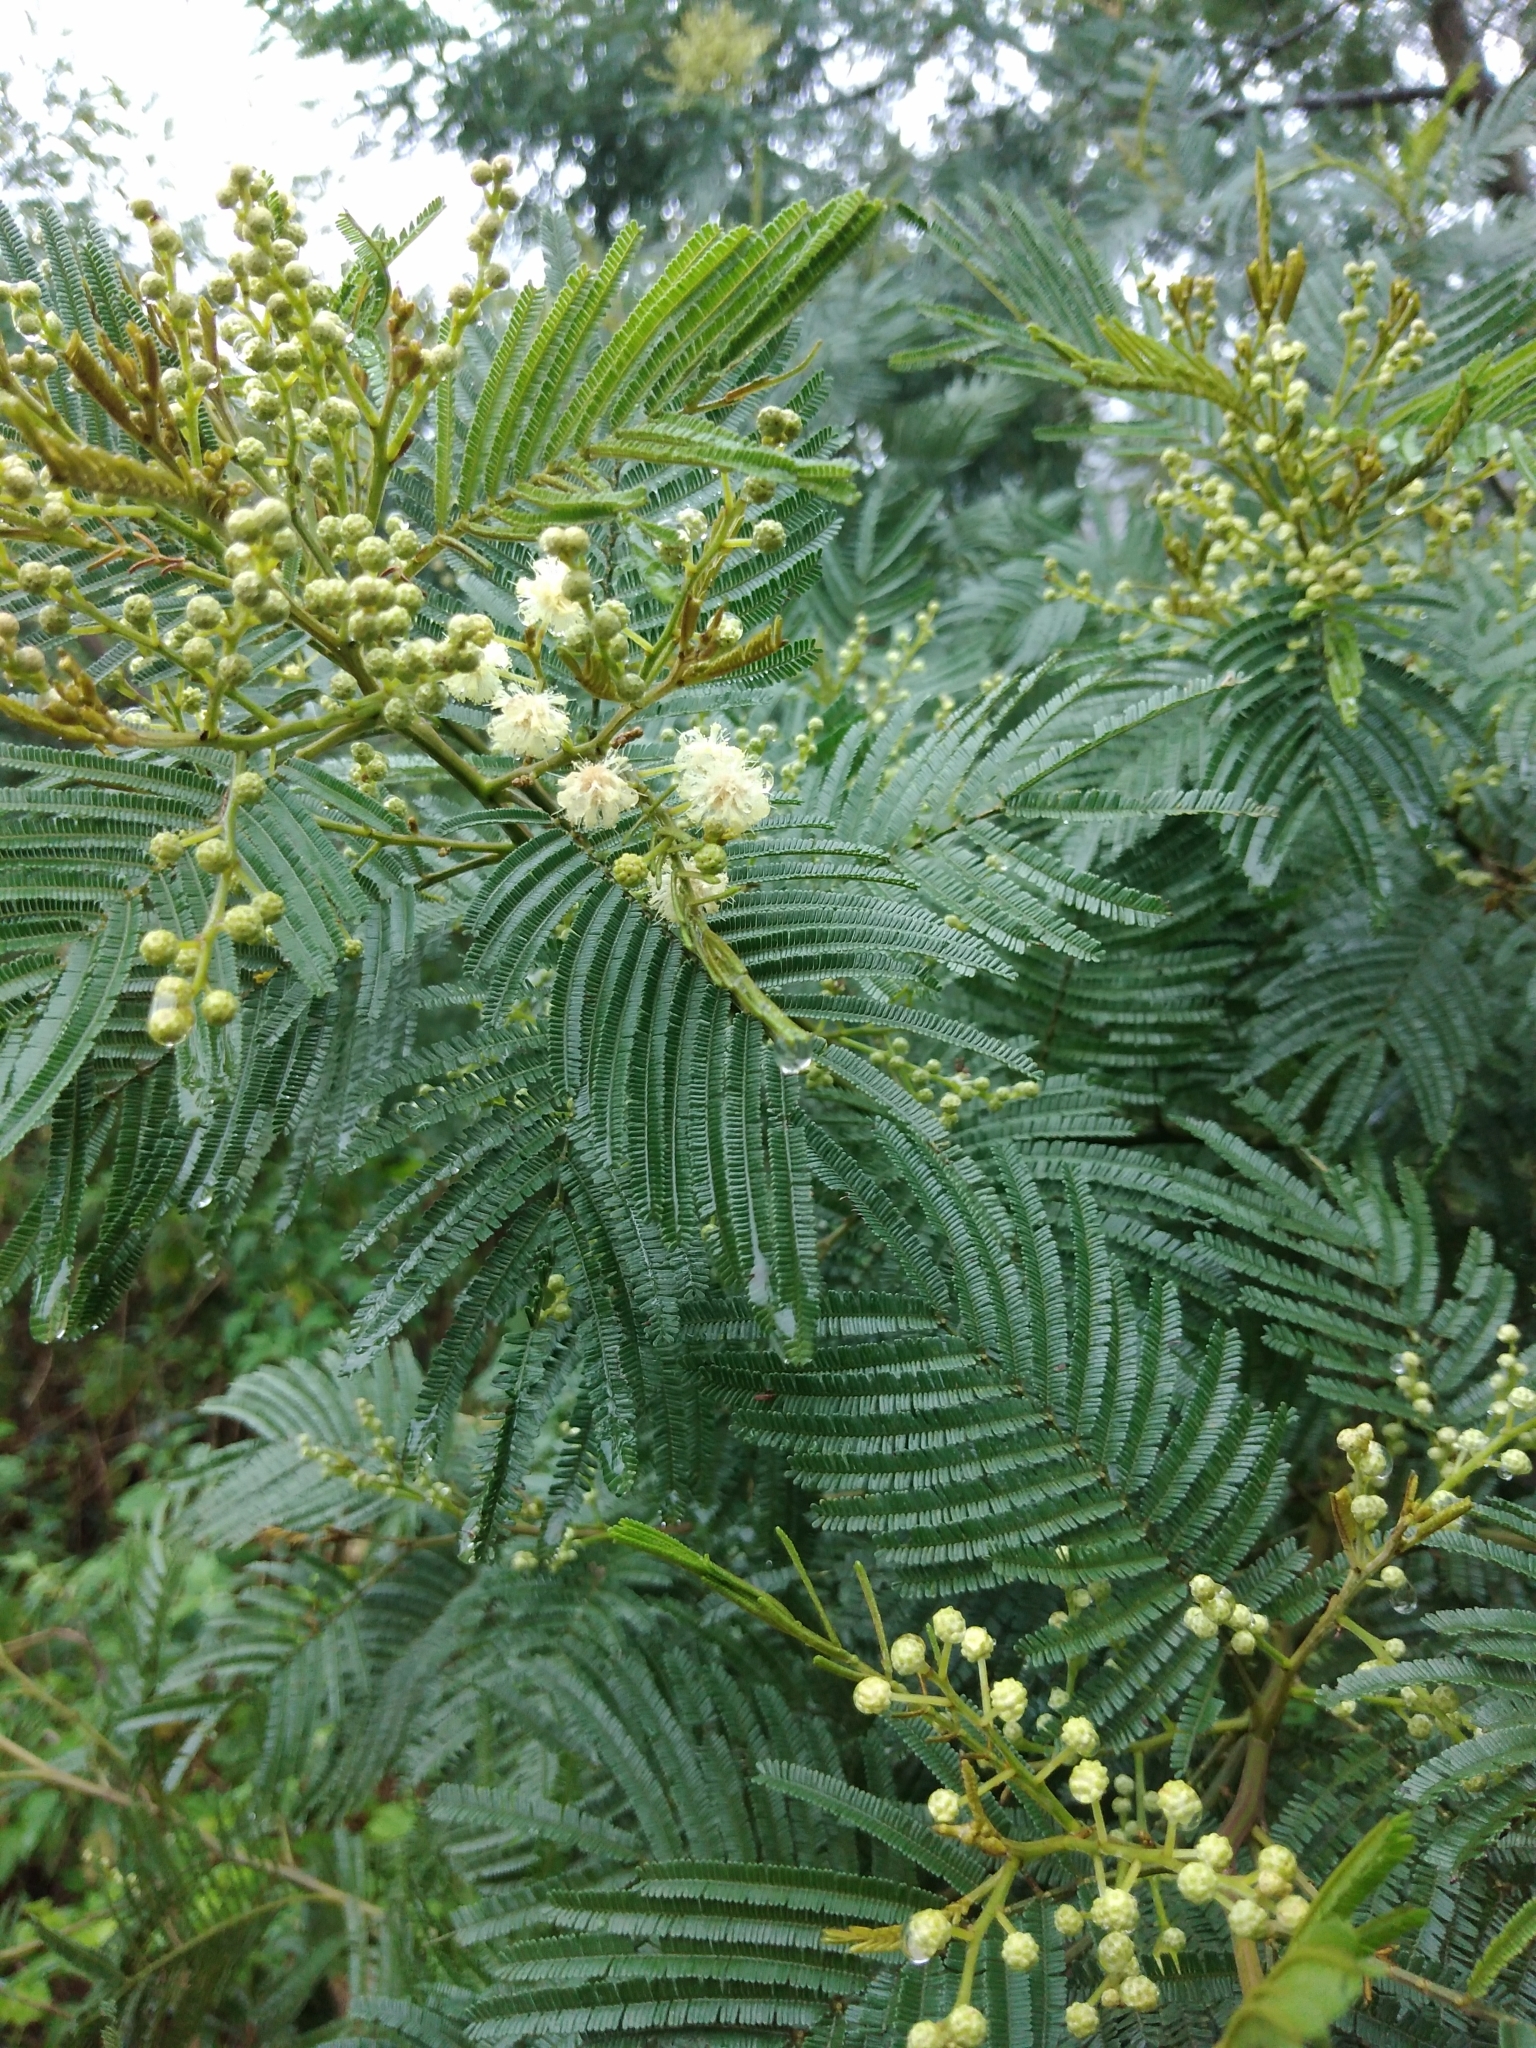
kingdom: Plantae
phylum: Tracheophyta
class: Magnoliopsida
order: Fabales
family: Fabaceae
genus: Acacia
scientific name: Acacia mearnsii
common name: Black wattle
